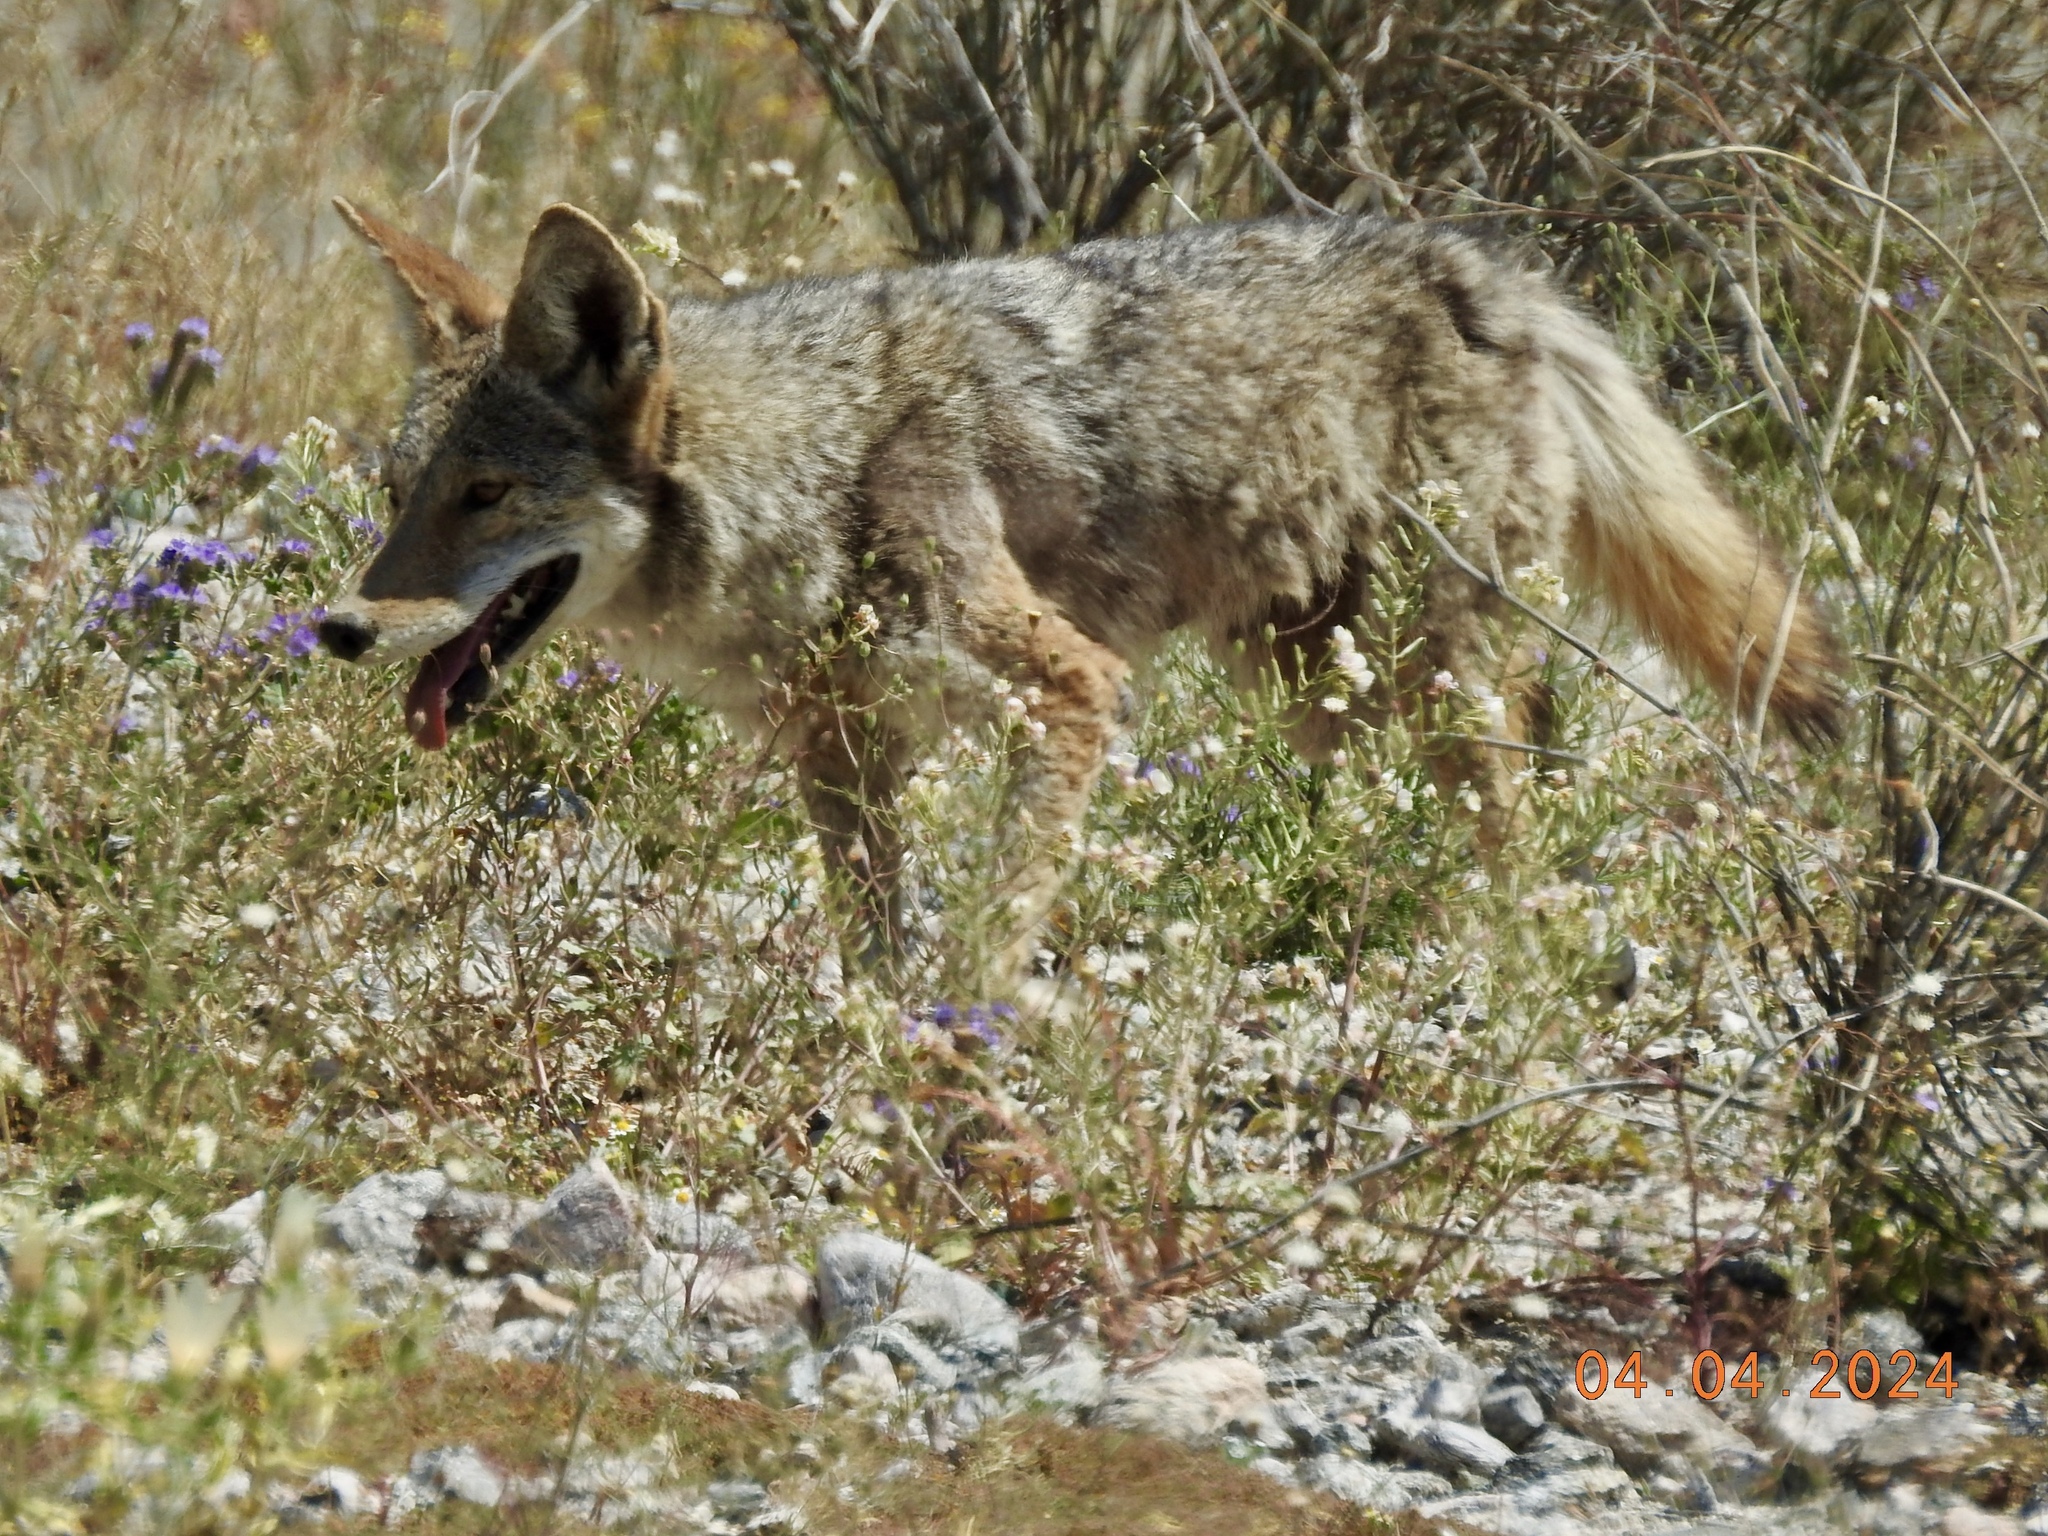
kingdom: Animalia
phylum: Chordata
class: Mammalia
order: Carnivora
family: Canidae
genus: Canis
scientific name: Canis latrans
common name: Coyote
